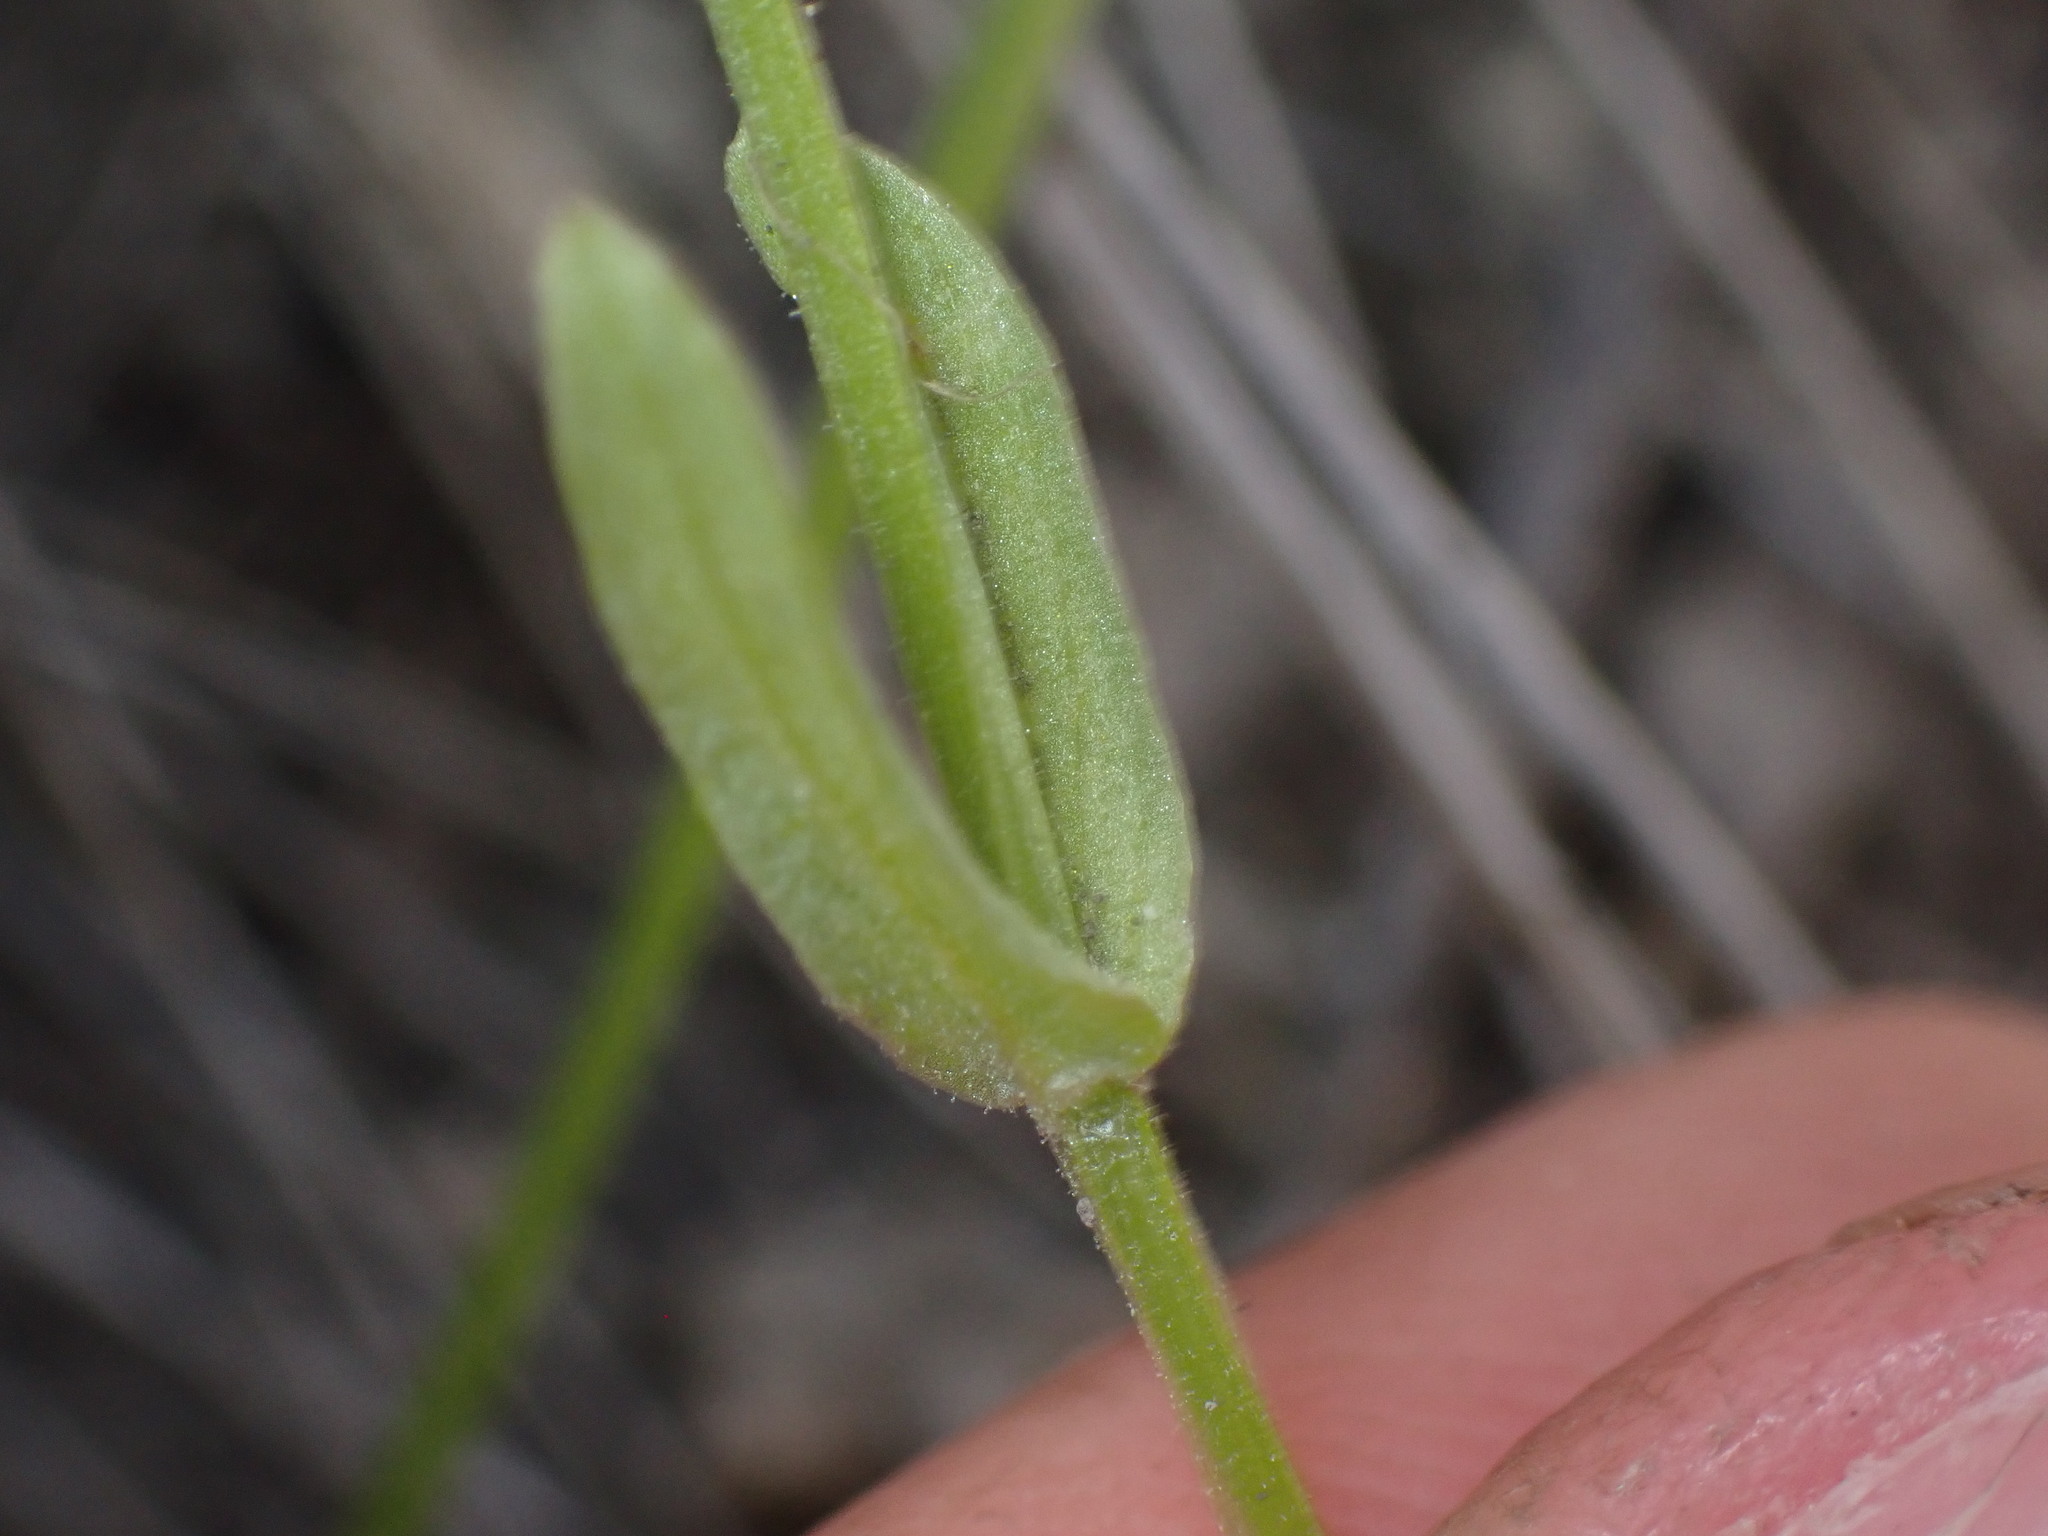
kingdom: Plantae
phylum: Tracheophyta
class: Magnoliopsida
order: Dipsacales
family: Caprifoliaceae
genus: Plectritis
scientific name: Plectritis macroptera
